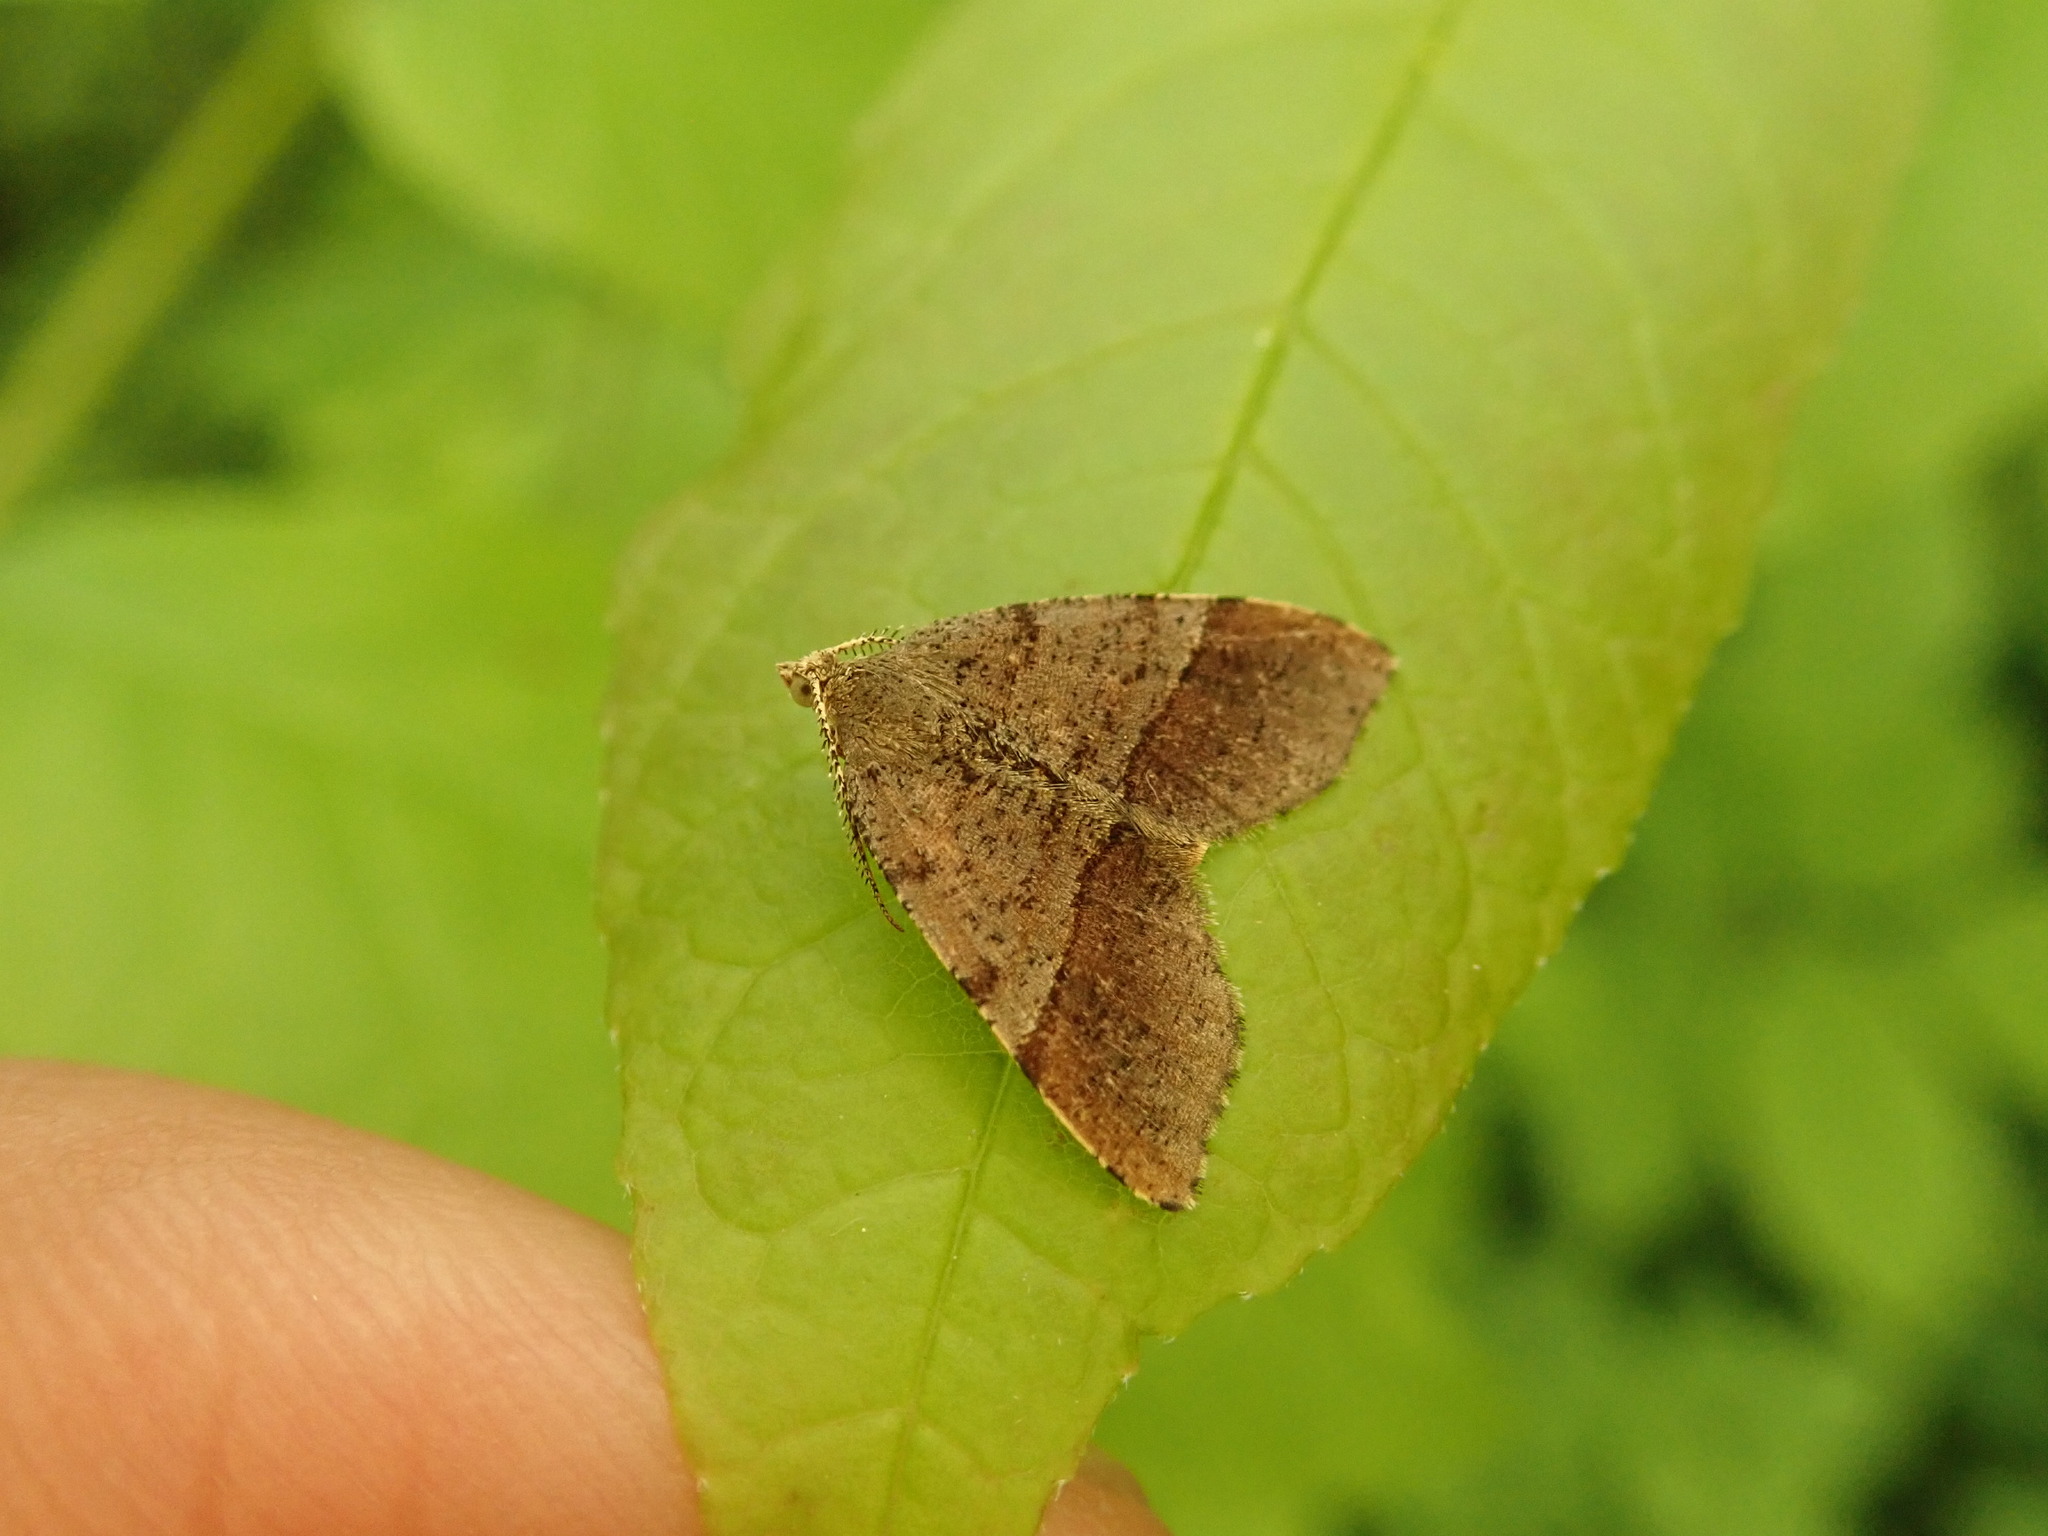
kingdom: Animalia
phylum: Arthropoda
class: Insecta
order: Lepidoptera
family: Geometridae
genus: Mellilla
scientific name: Mellilla xanthometata
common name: Orange wing moth
